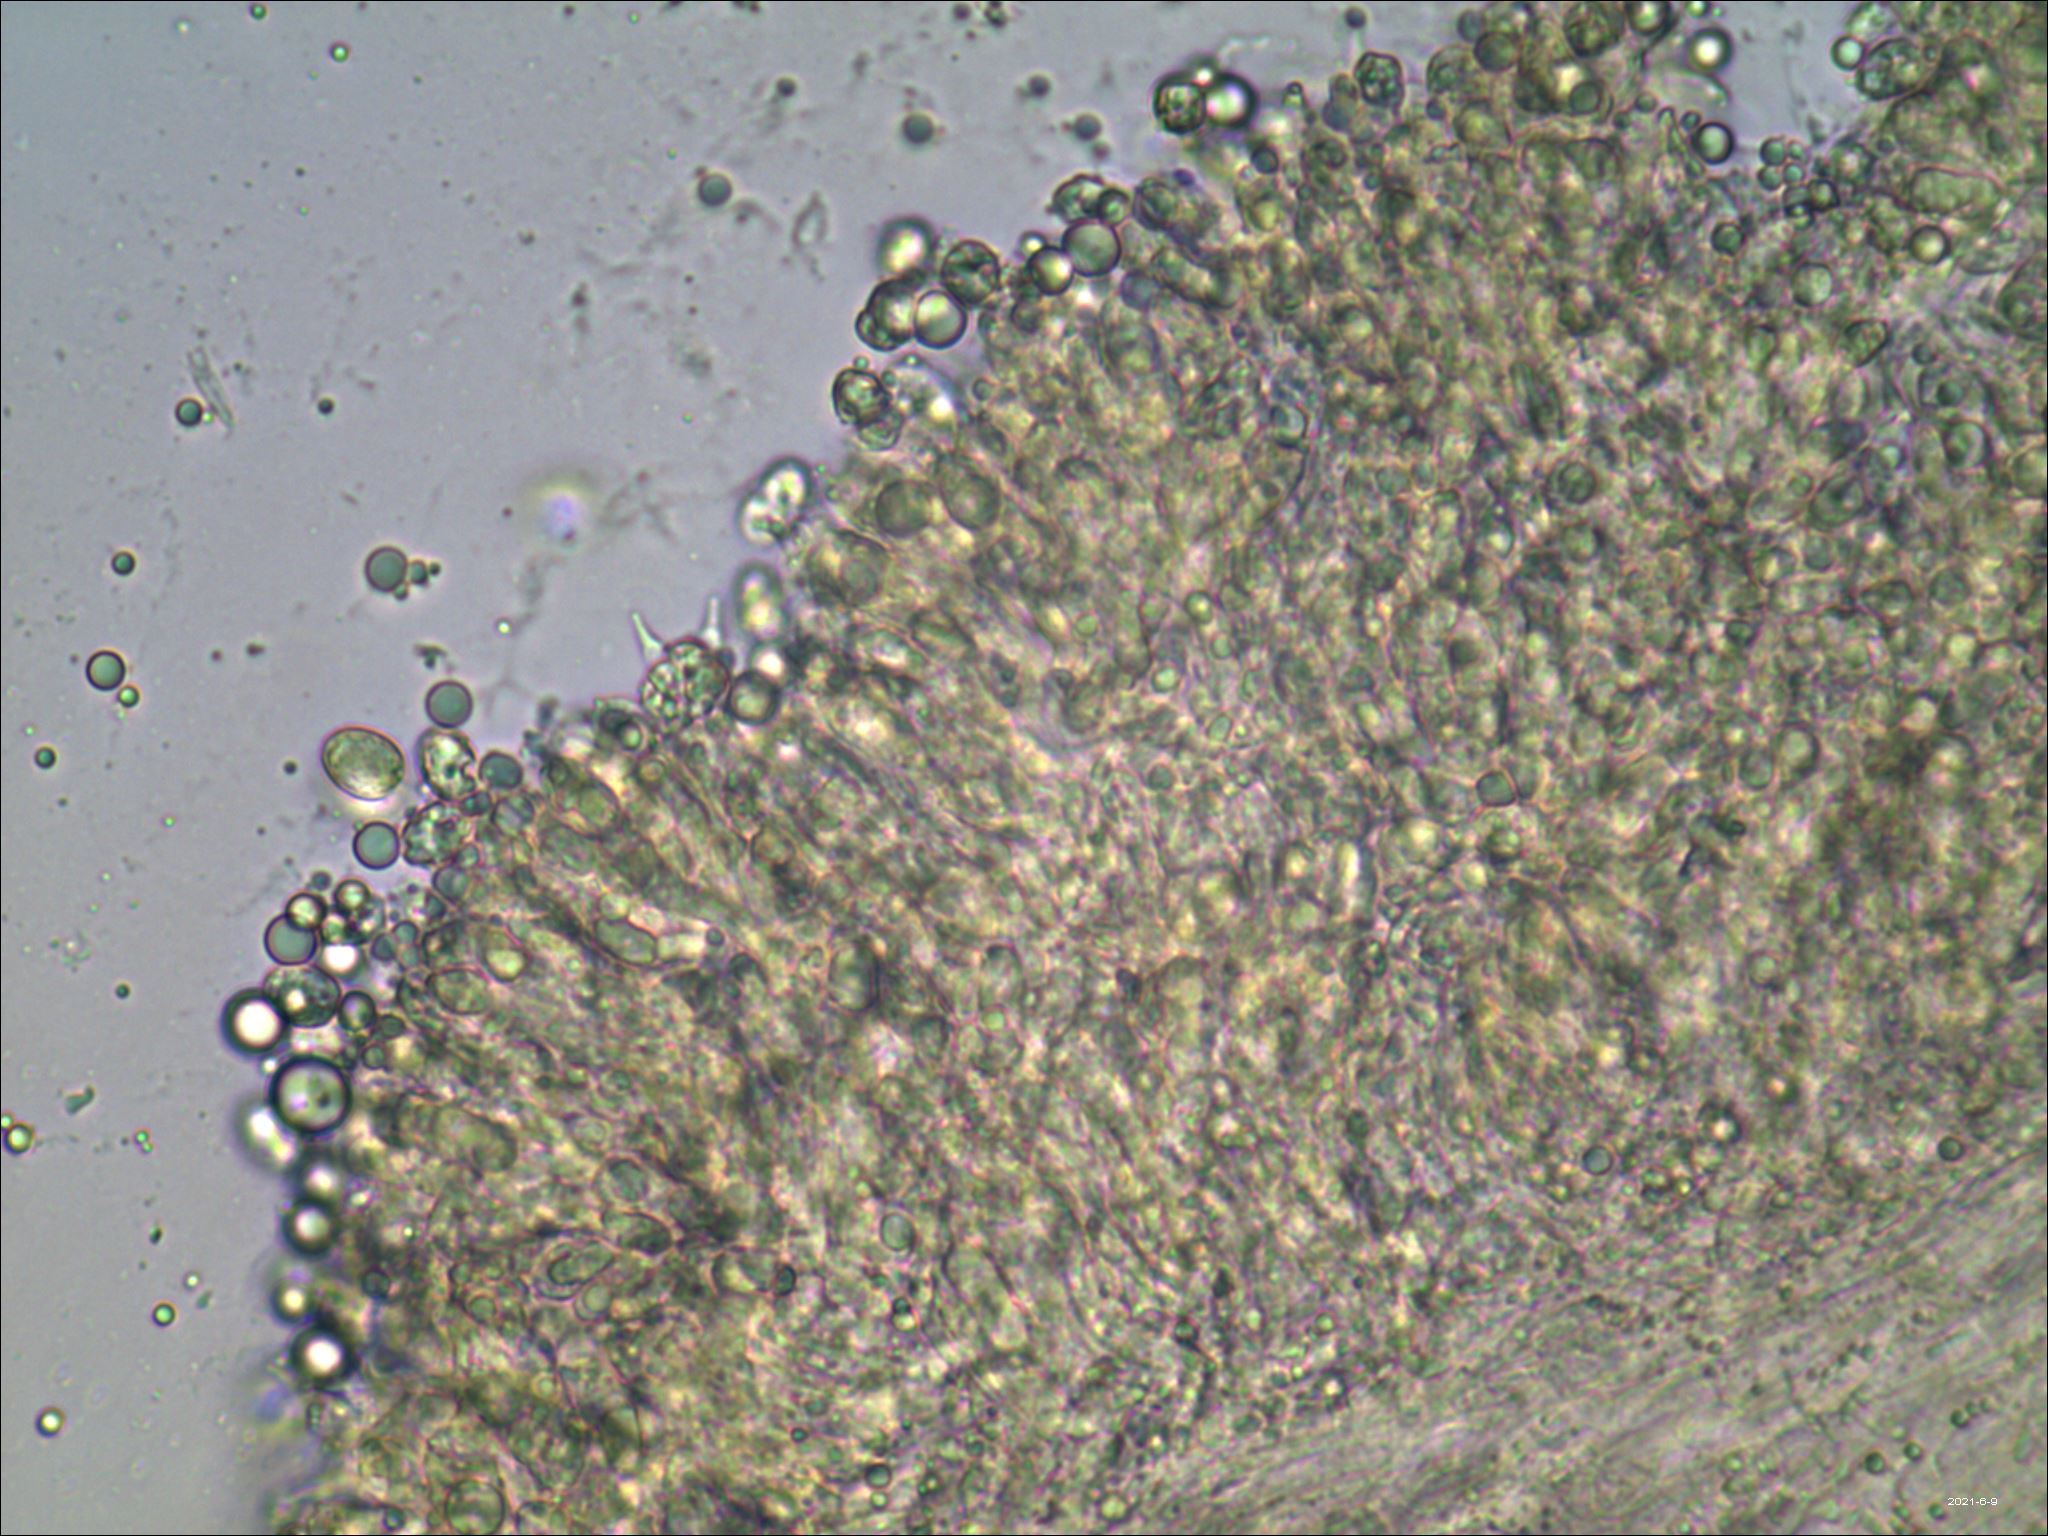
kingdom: Fungi
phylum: Basidiomycota
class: Agaricomycetes
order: Agaricales
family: Hygrophoraceae
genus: Hygrocybe
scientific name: Hygrocybe cantharellus
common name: Goblet waxcap
